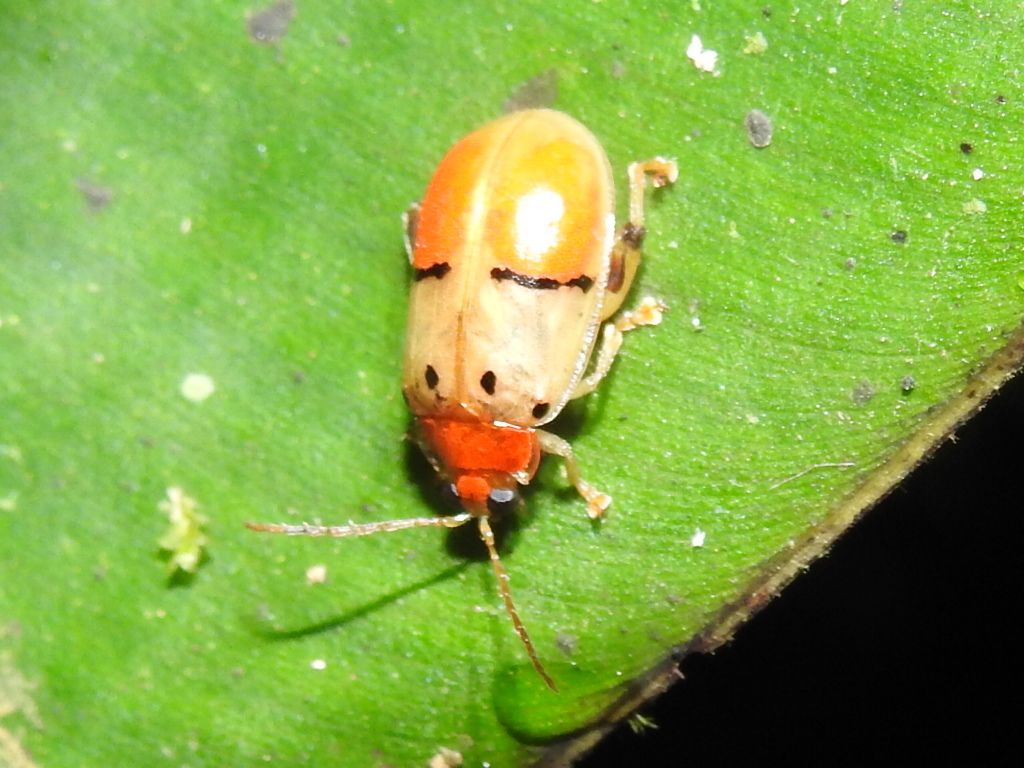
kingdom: Animalia
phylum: Arthropoda
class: Insecta
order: Coleoptera
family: Chrysomelidae
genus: Walterianella
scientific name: Walterianella humeralis
